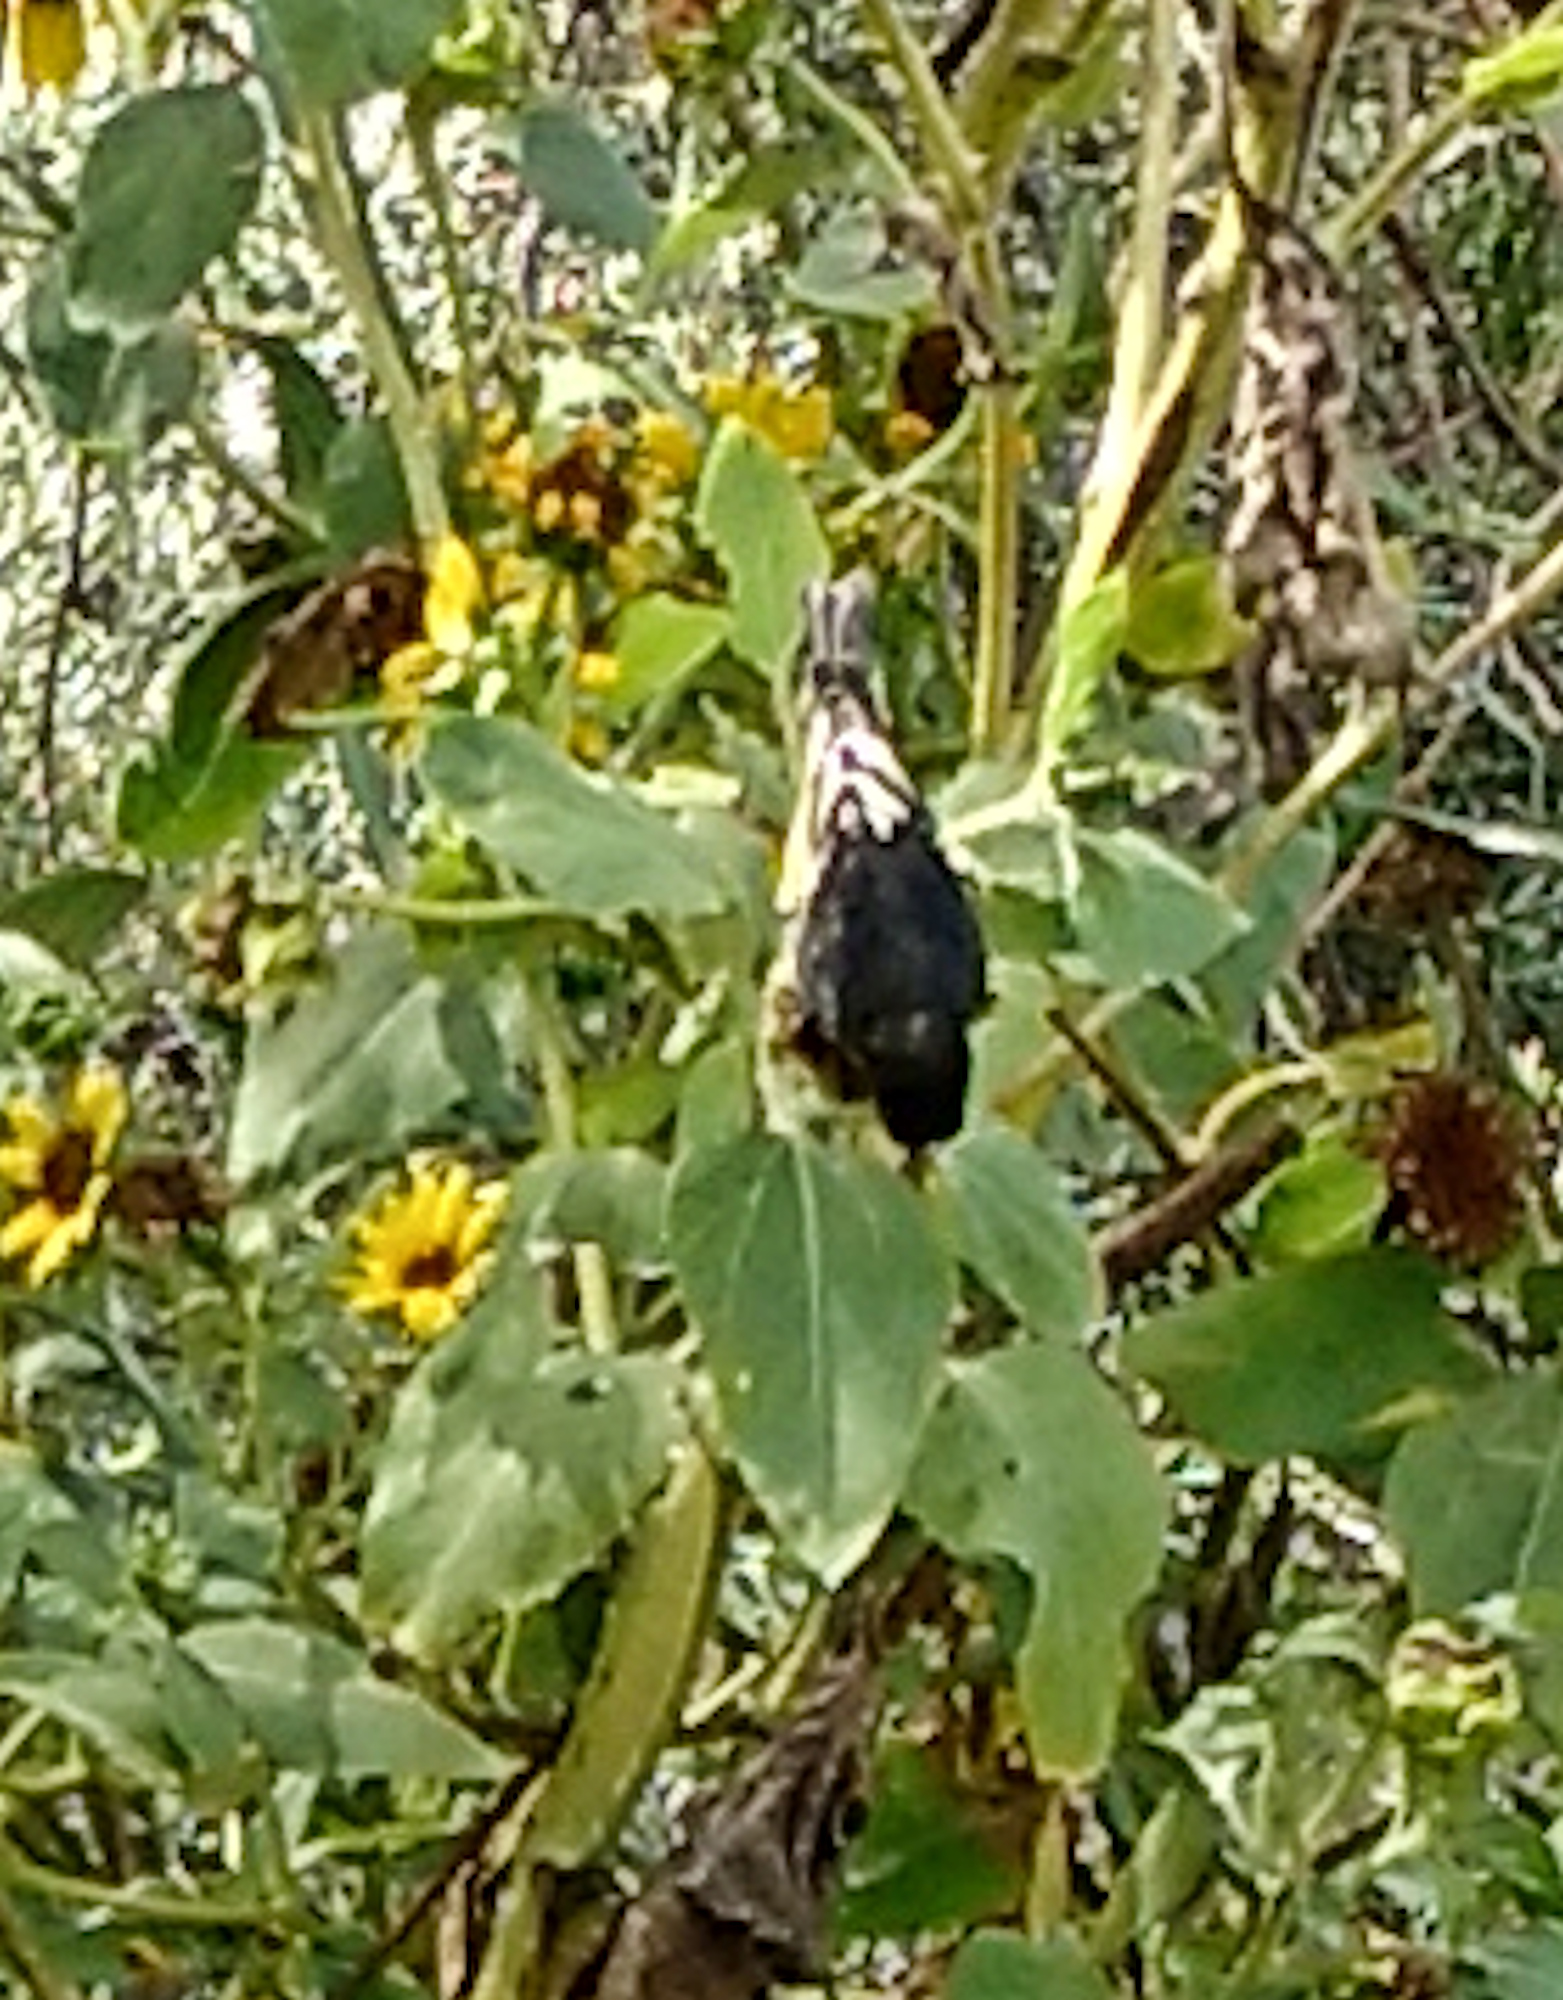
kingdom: Animalia
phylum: Chordata
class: Aves
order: Passeriformes
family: Fringillidae
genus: Spinus
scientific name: Spinus psaltria
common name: Lesser goldfinch
